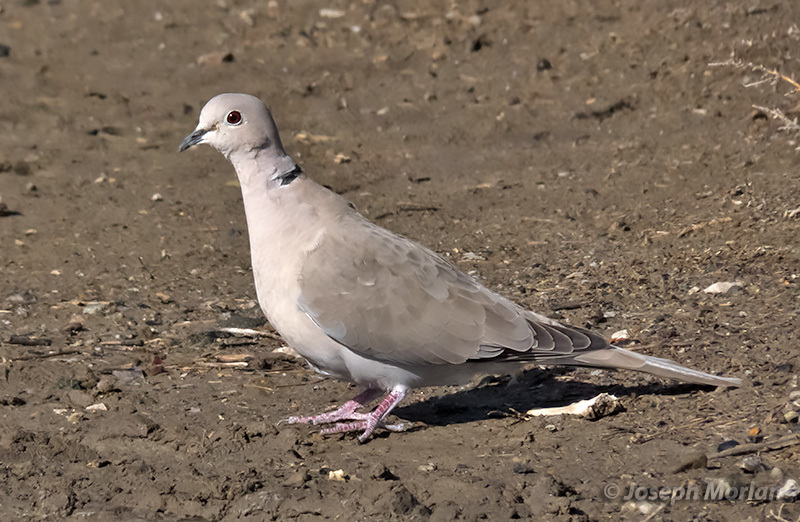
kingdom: Animalia
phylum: Chordata
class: Aves
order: Columbiformes
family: Columbidae
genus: Streptopelia
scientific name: Streptopelia decaocto
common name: Eurasian collared dove
